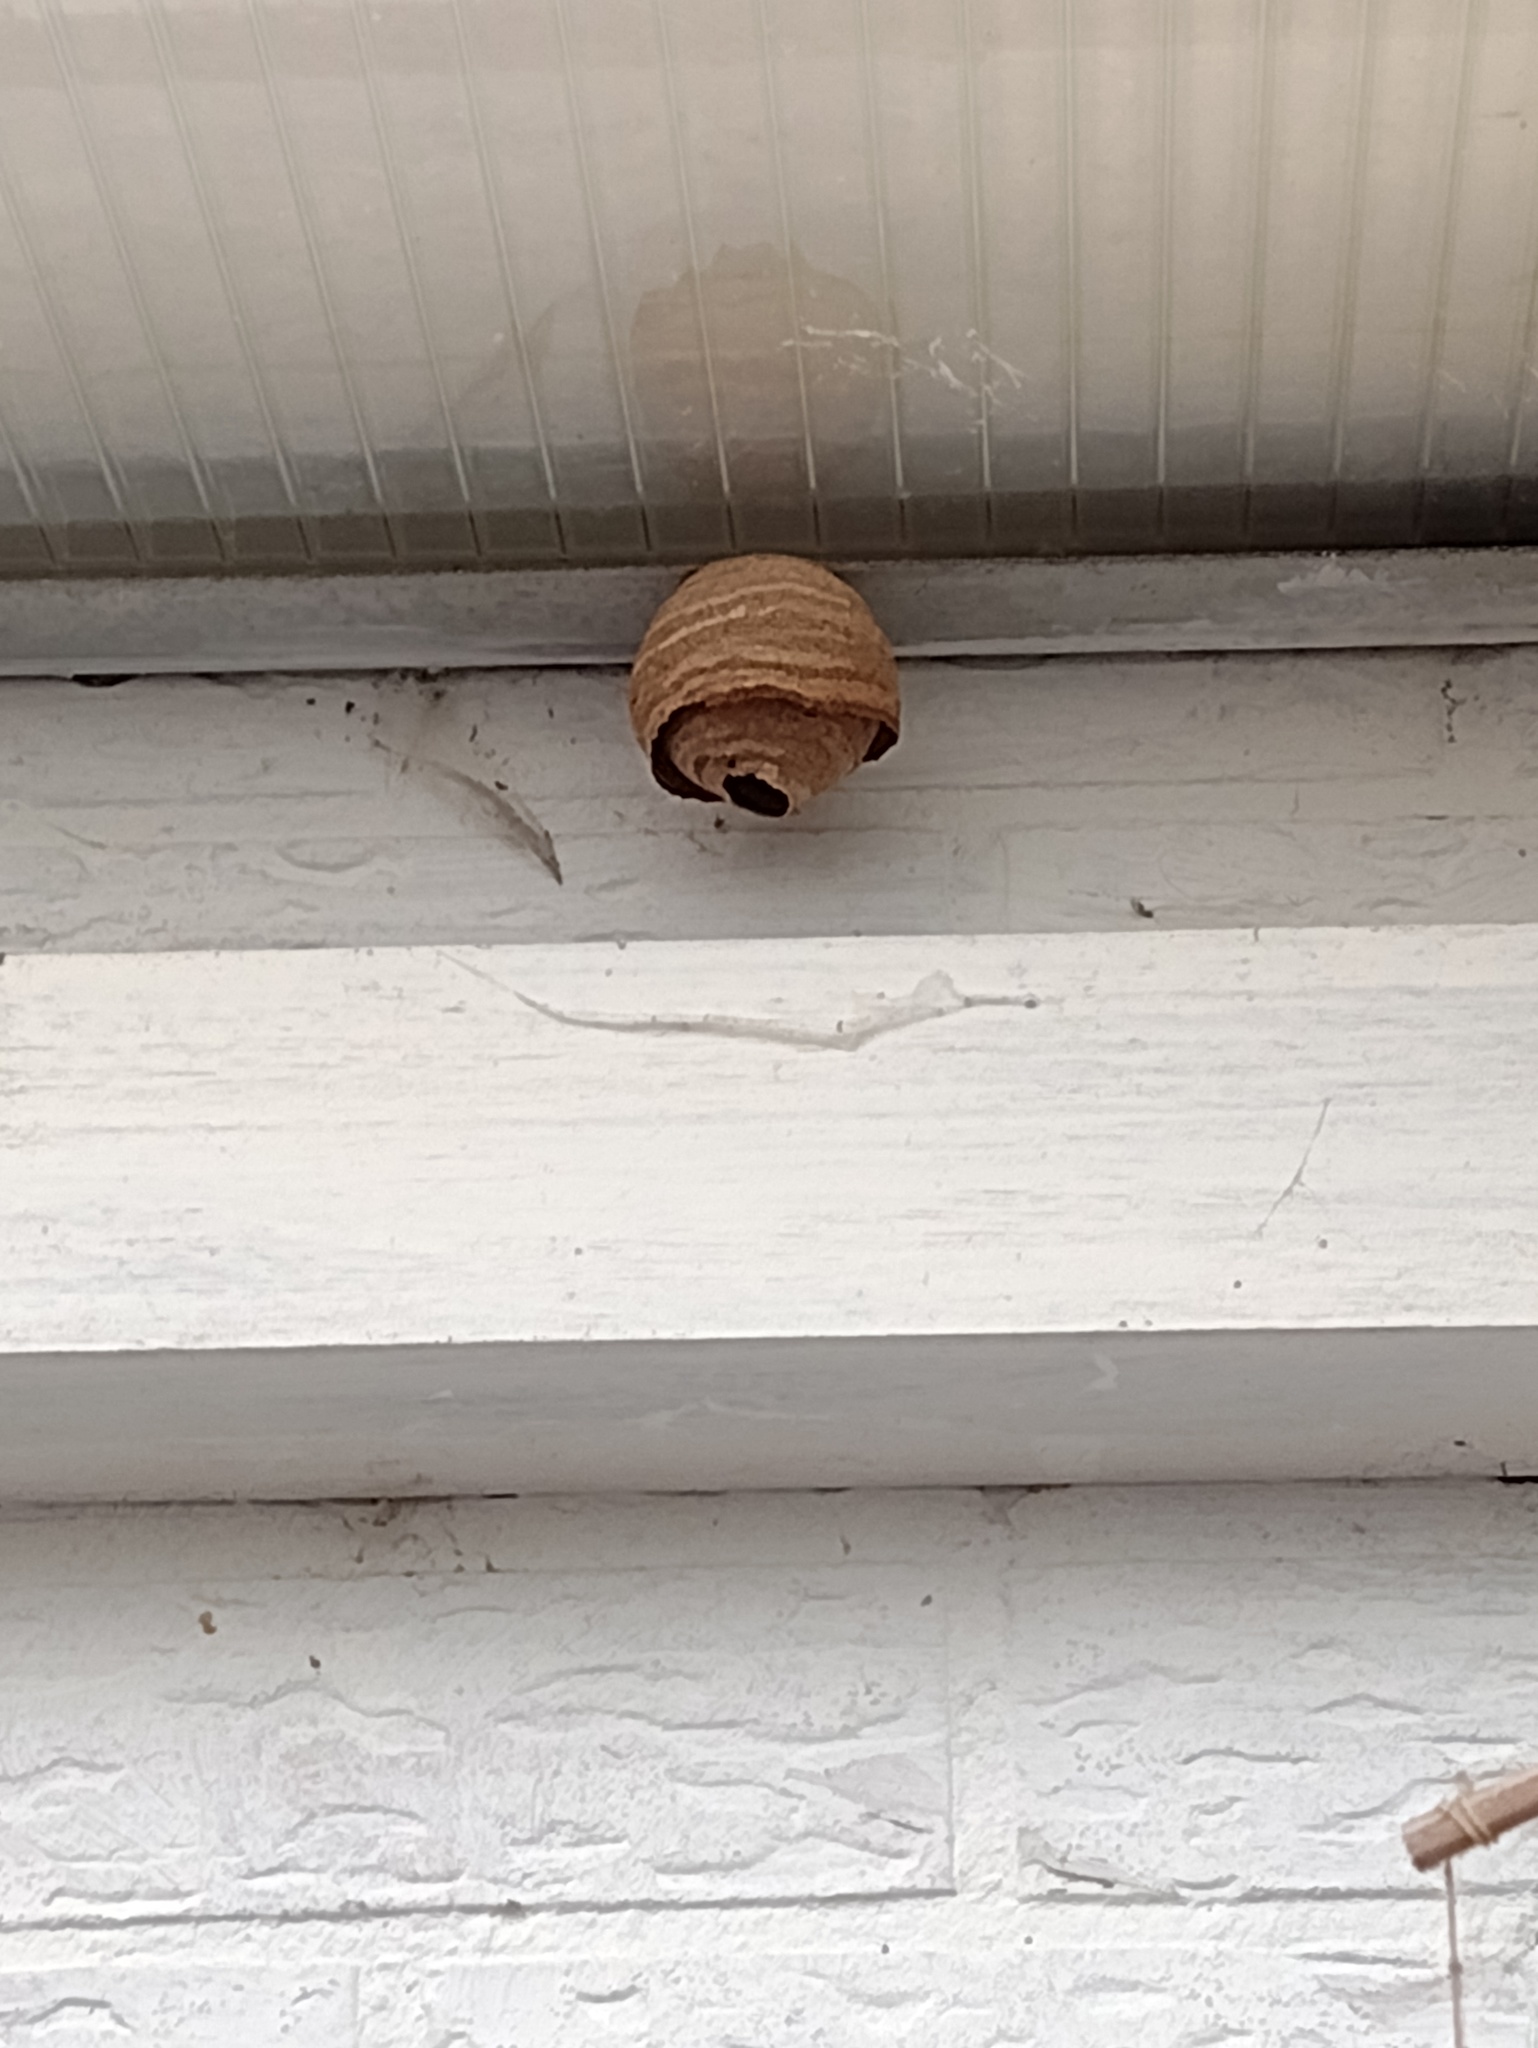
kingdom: Animalia
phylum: Arthropoda
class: Insecta
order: Hymenoptera
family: Vespidae
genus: Vespa
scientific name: Vespa velutina
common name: Asian hornet
